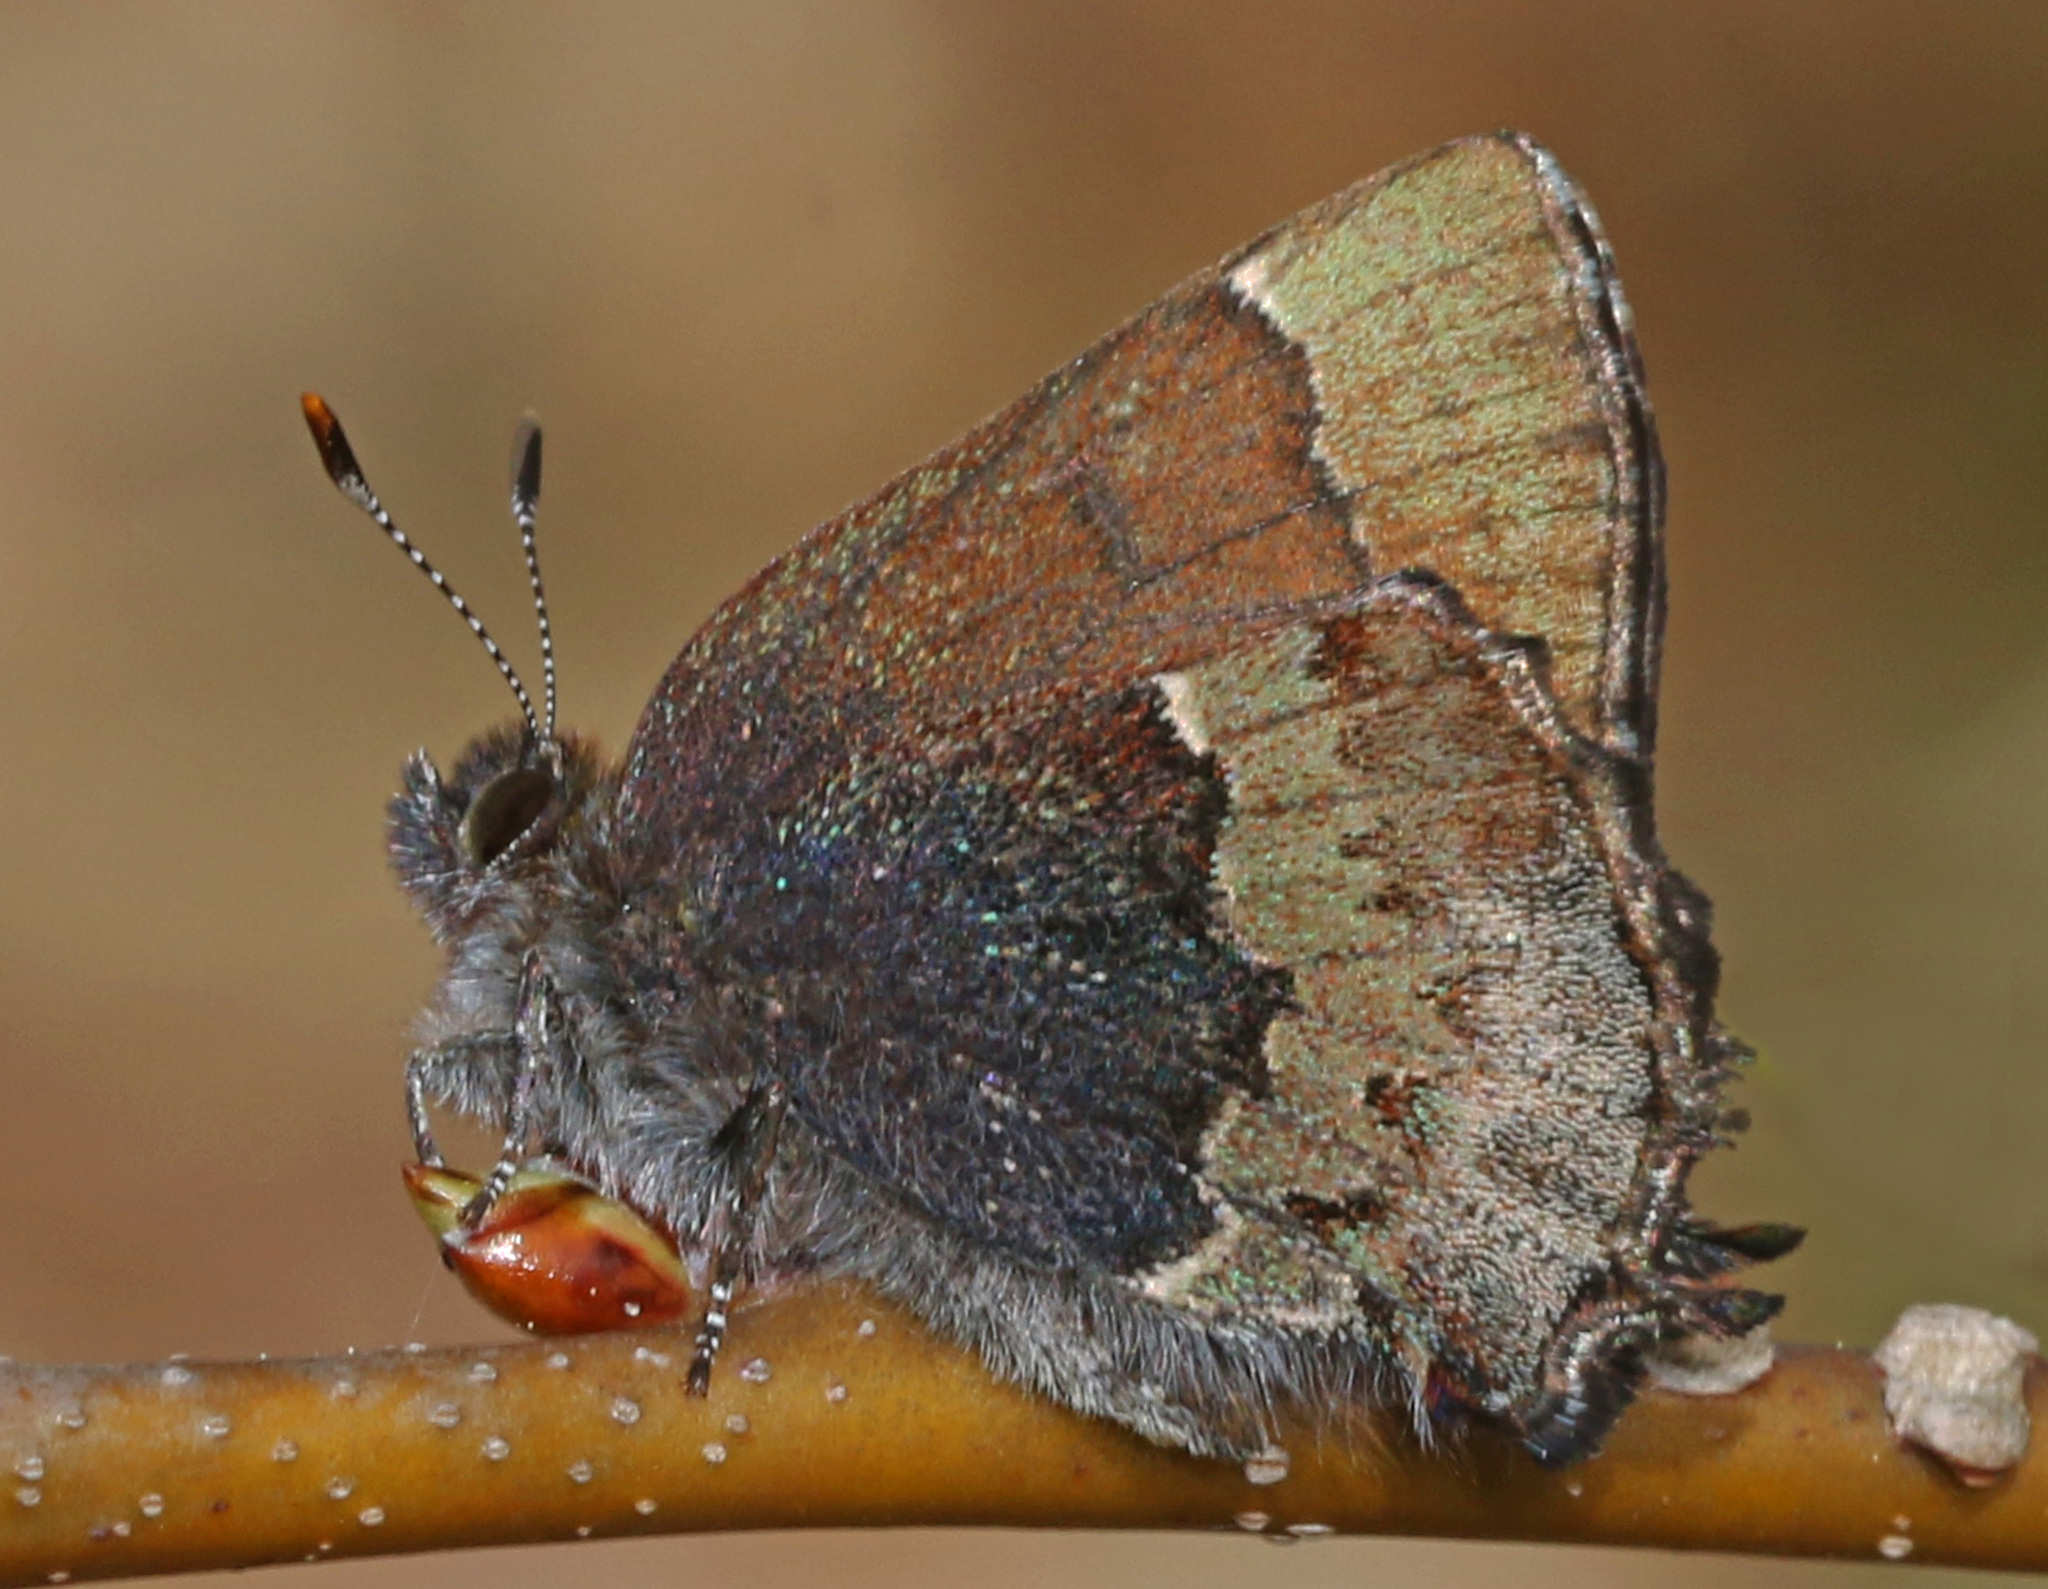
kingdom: Animalia
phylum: Arthropoda
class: Insecta
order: Lepidoptera
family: Lycaenidae
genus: Incisalia
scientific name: Incisalia henrici
